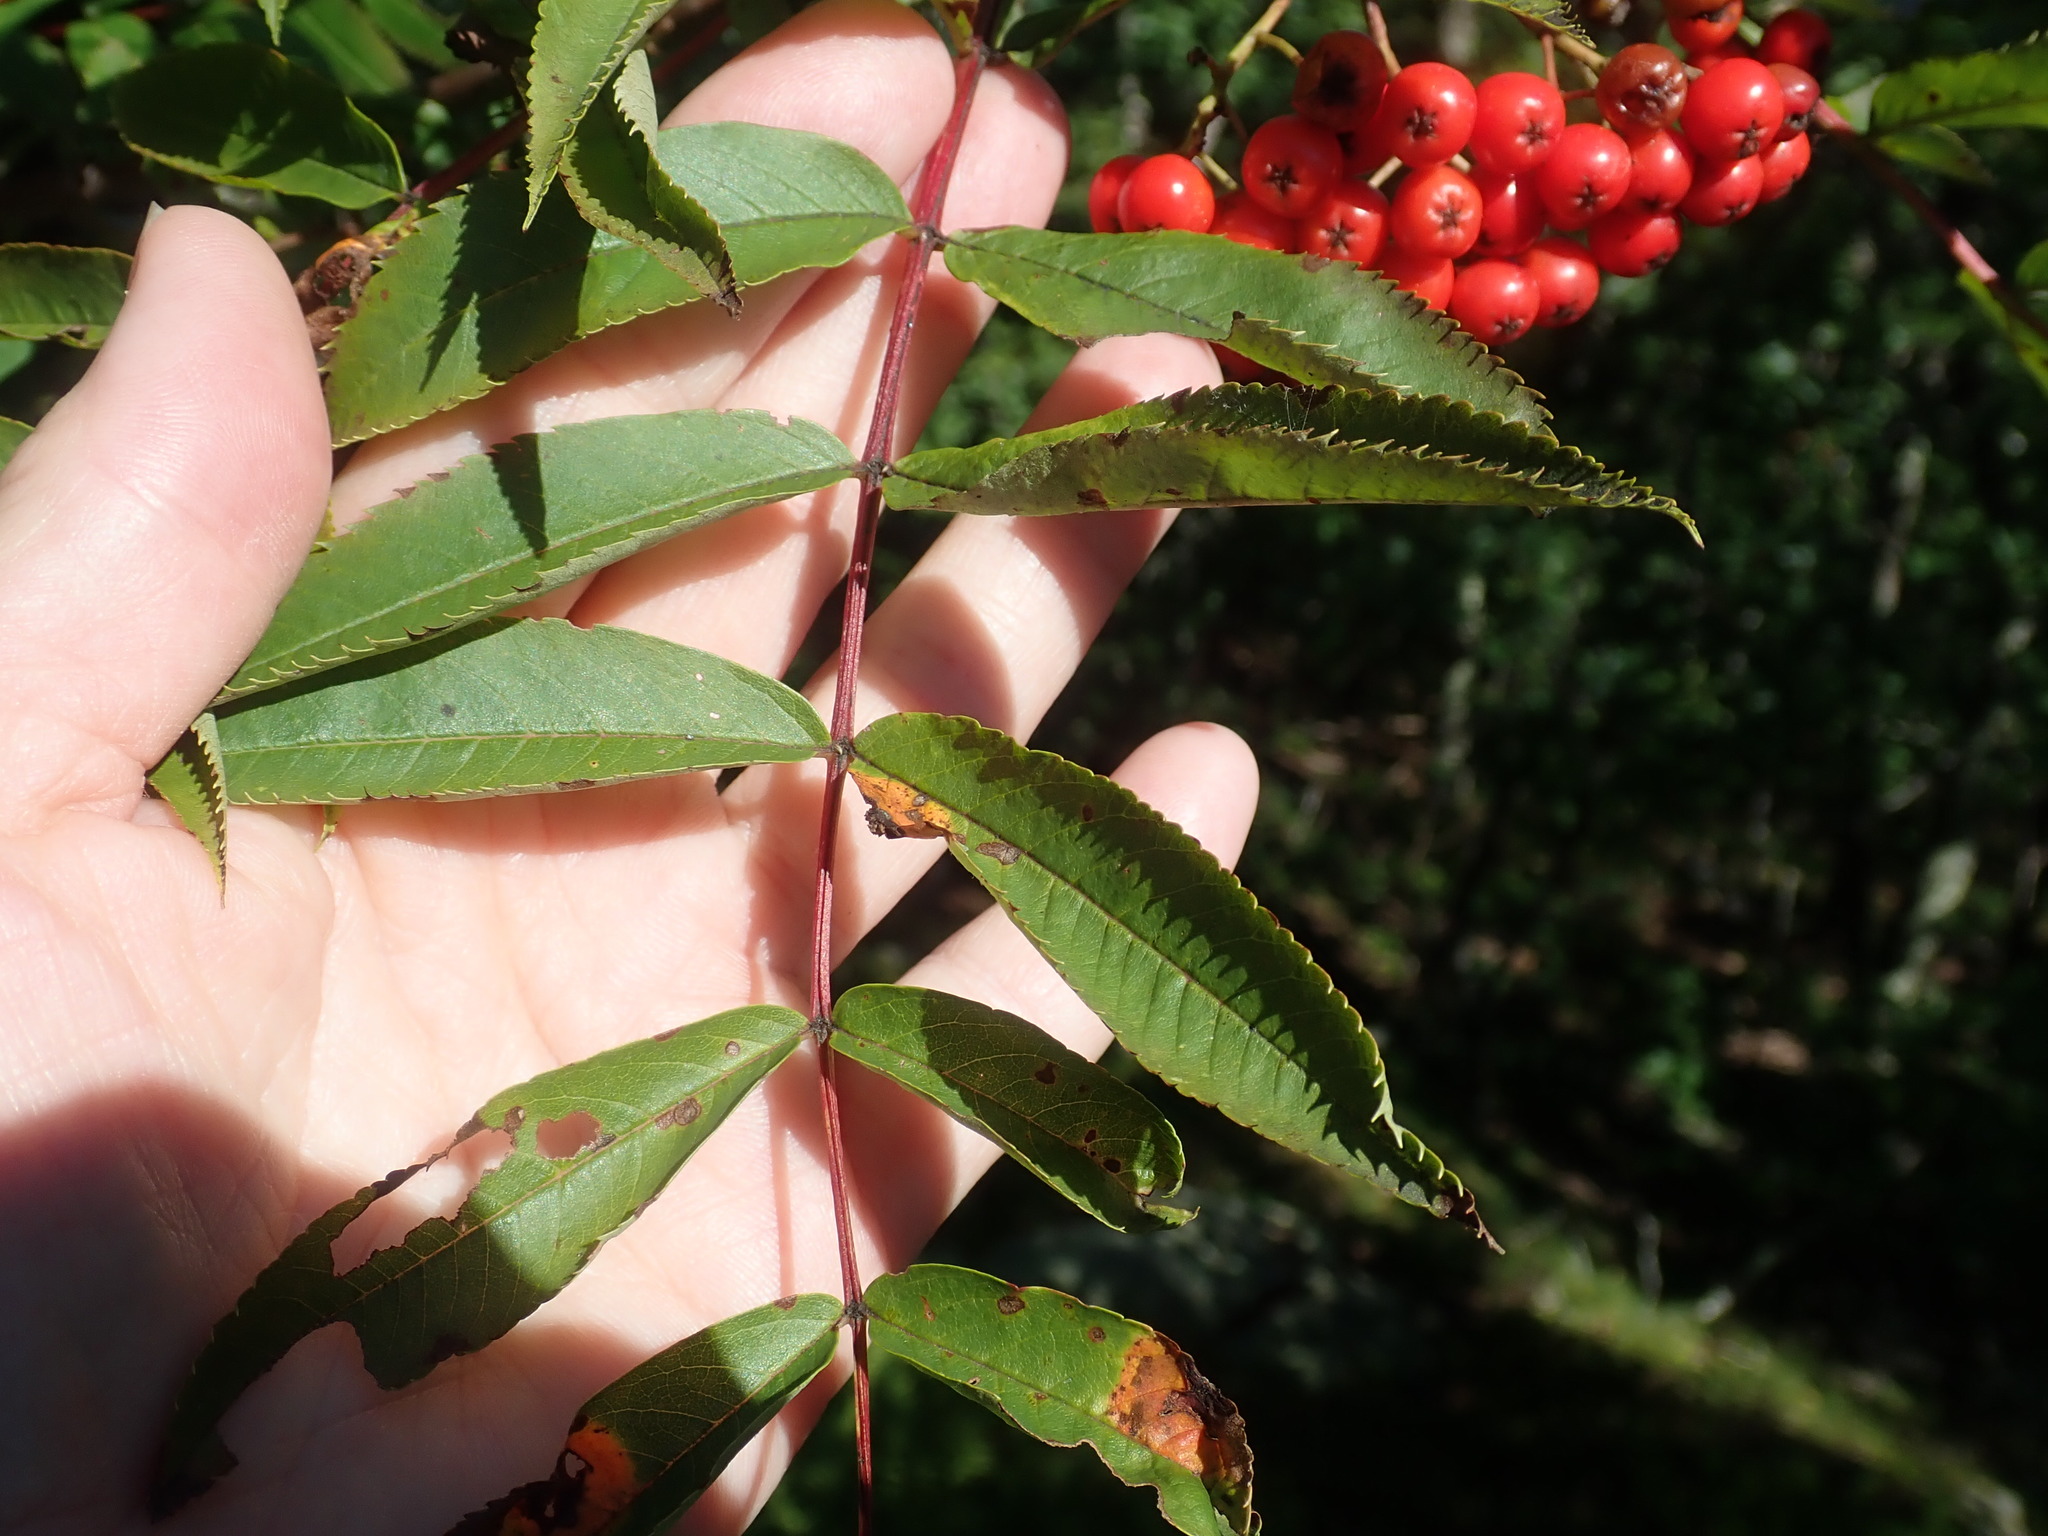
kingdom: Plantae
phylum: Tracheophyta
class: Magnoliopsida
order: Rosales
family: Rosaceae
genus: Sorbus
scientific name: Sorbus americana
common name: American mountain-ash
